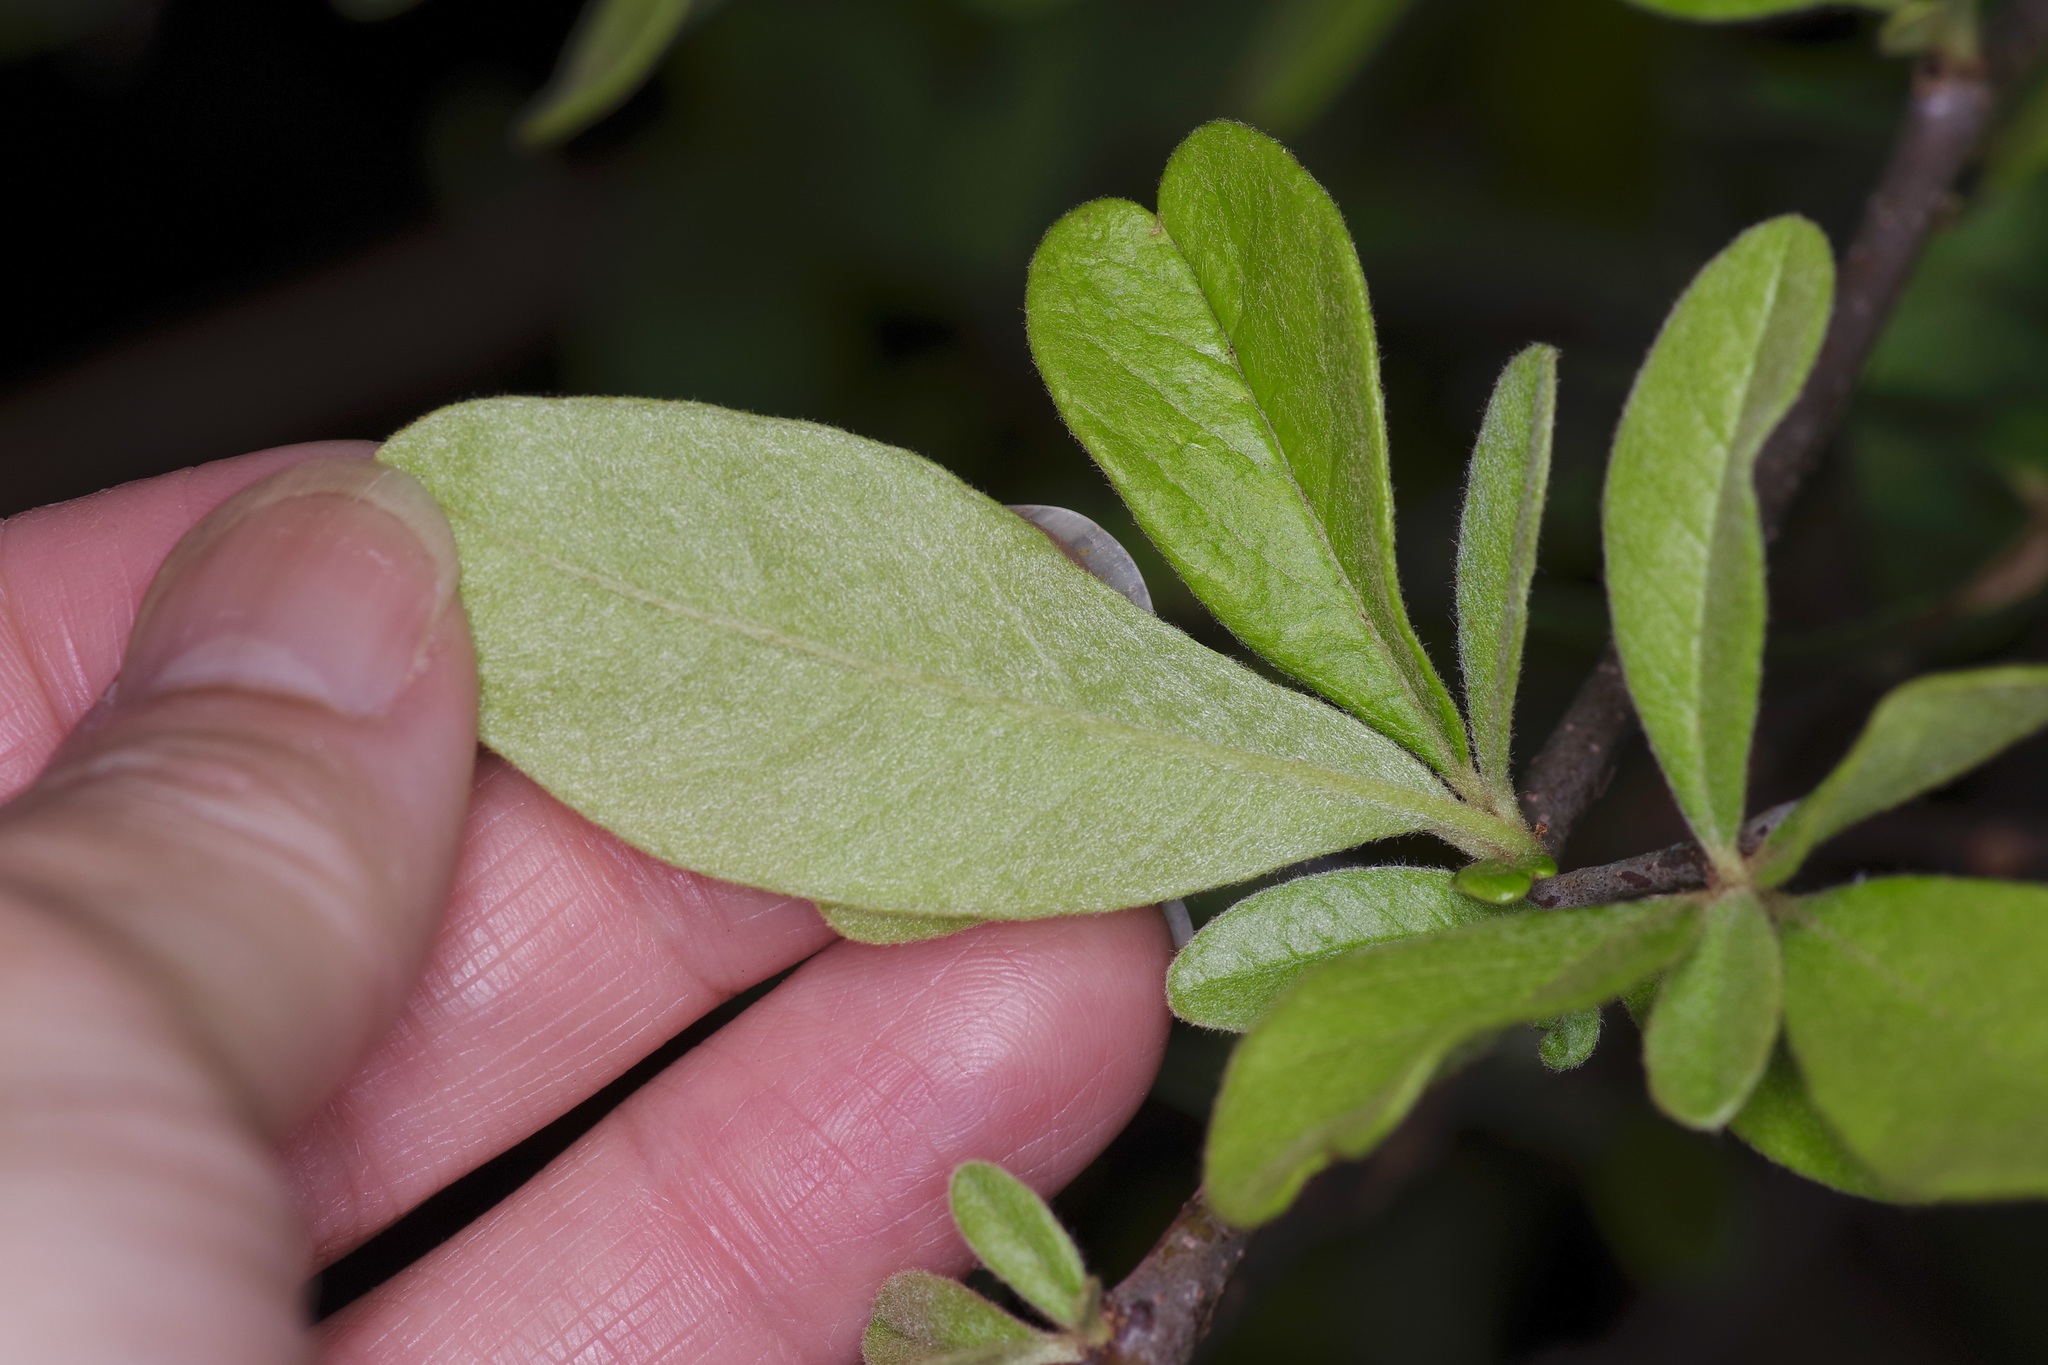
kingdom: Plantae
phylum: Tracheophyta
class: Magnoliopsida
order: Ericales
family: Sapotaceae
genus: Sideroxylon
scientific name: Sideroxylon lanuginosum
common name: Chittamwood
